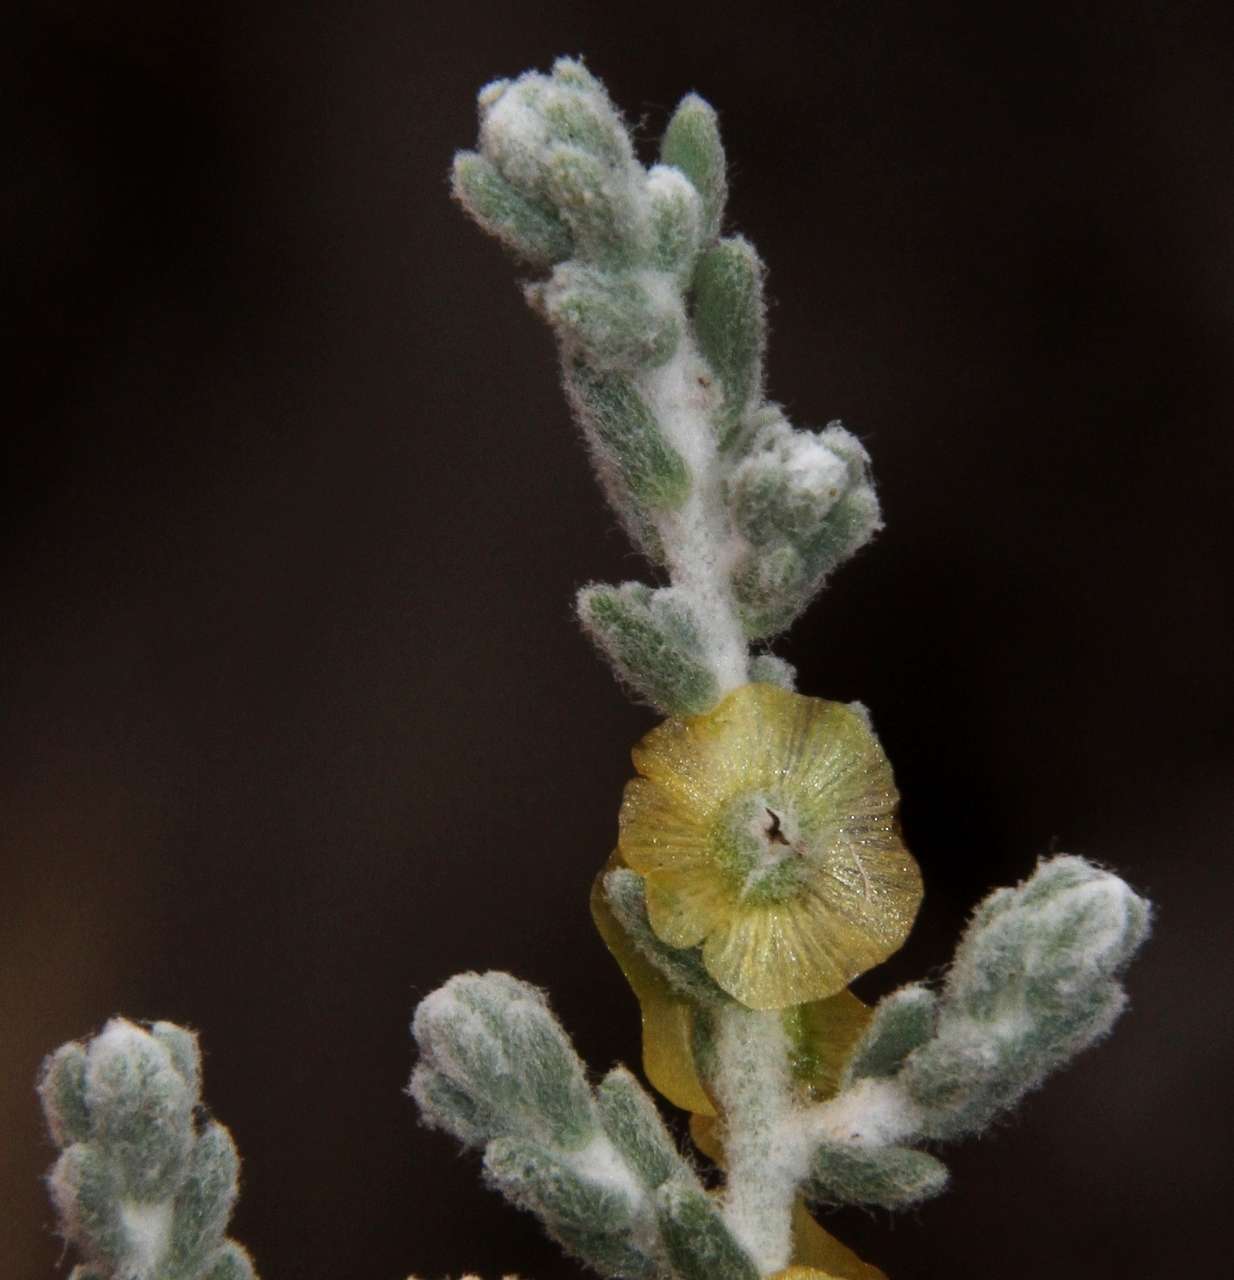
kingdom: Plantae
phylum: Tracheophyta
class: Magnoliopsida
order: Caryophyllales
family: Amaranthaceae
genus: Maireana
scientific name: Maireana radiata
